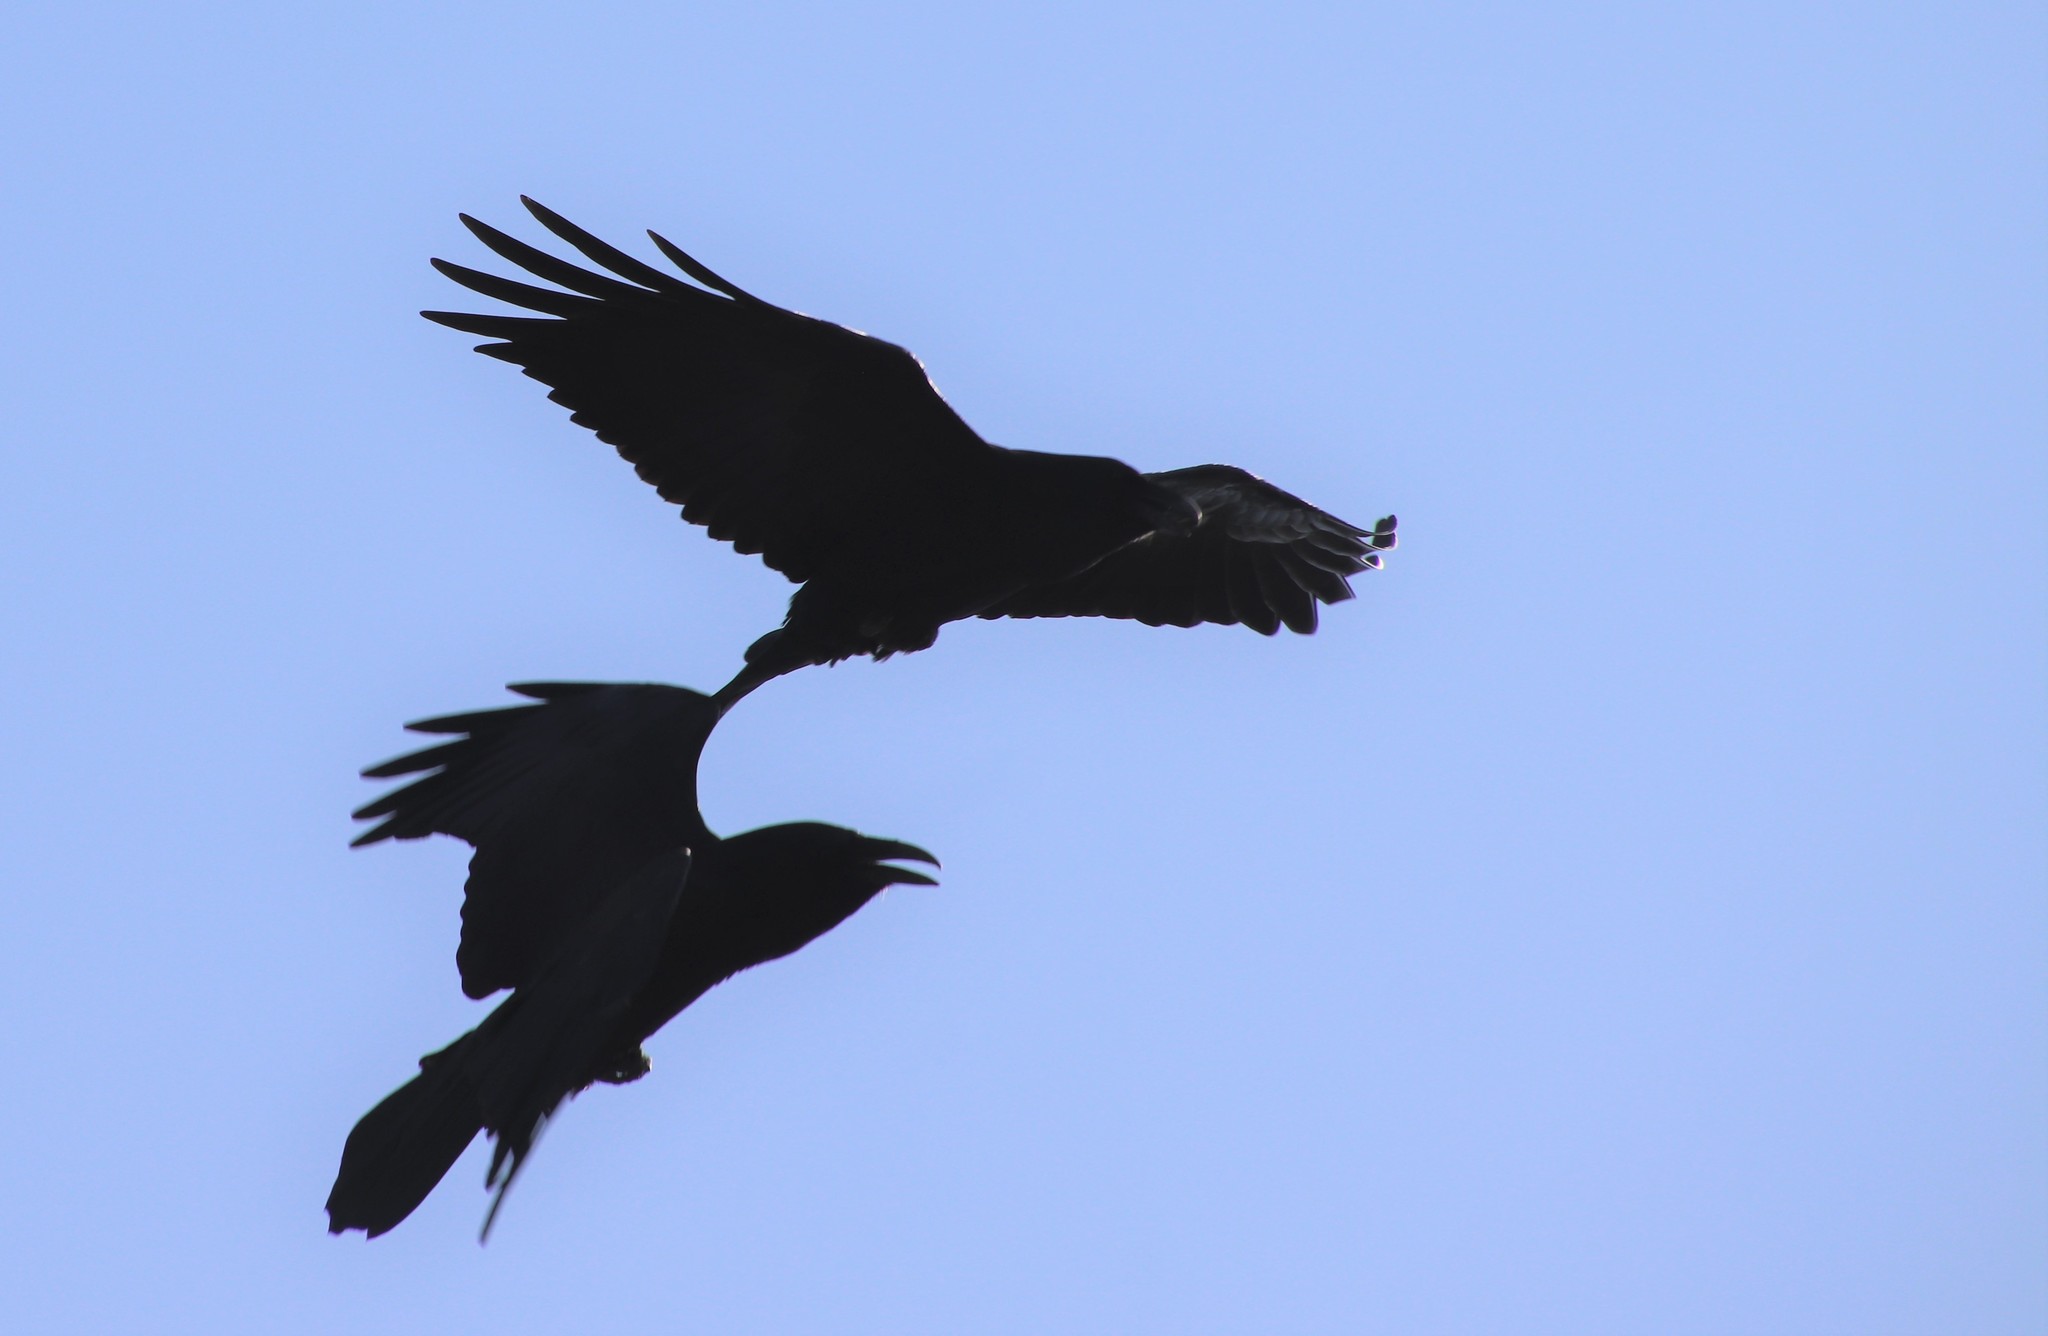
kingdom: Animalia
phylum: Chordata
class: Aves
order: Passeriformes
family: Corvidae
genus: Corvus
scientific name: Corvus corax
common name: Common raven
